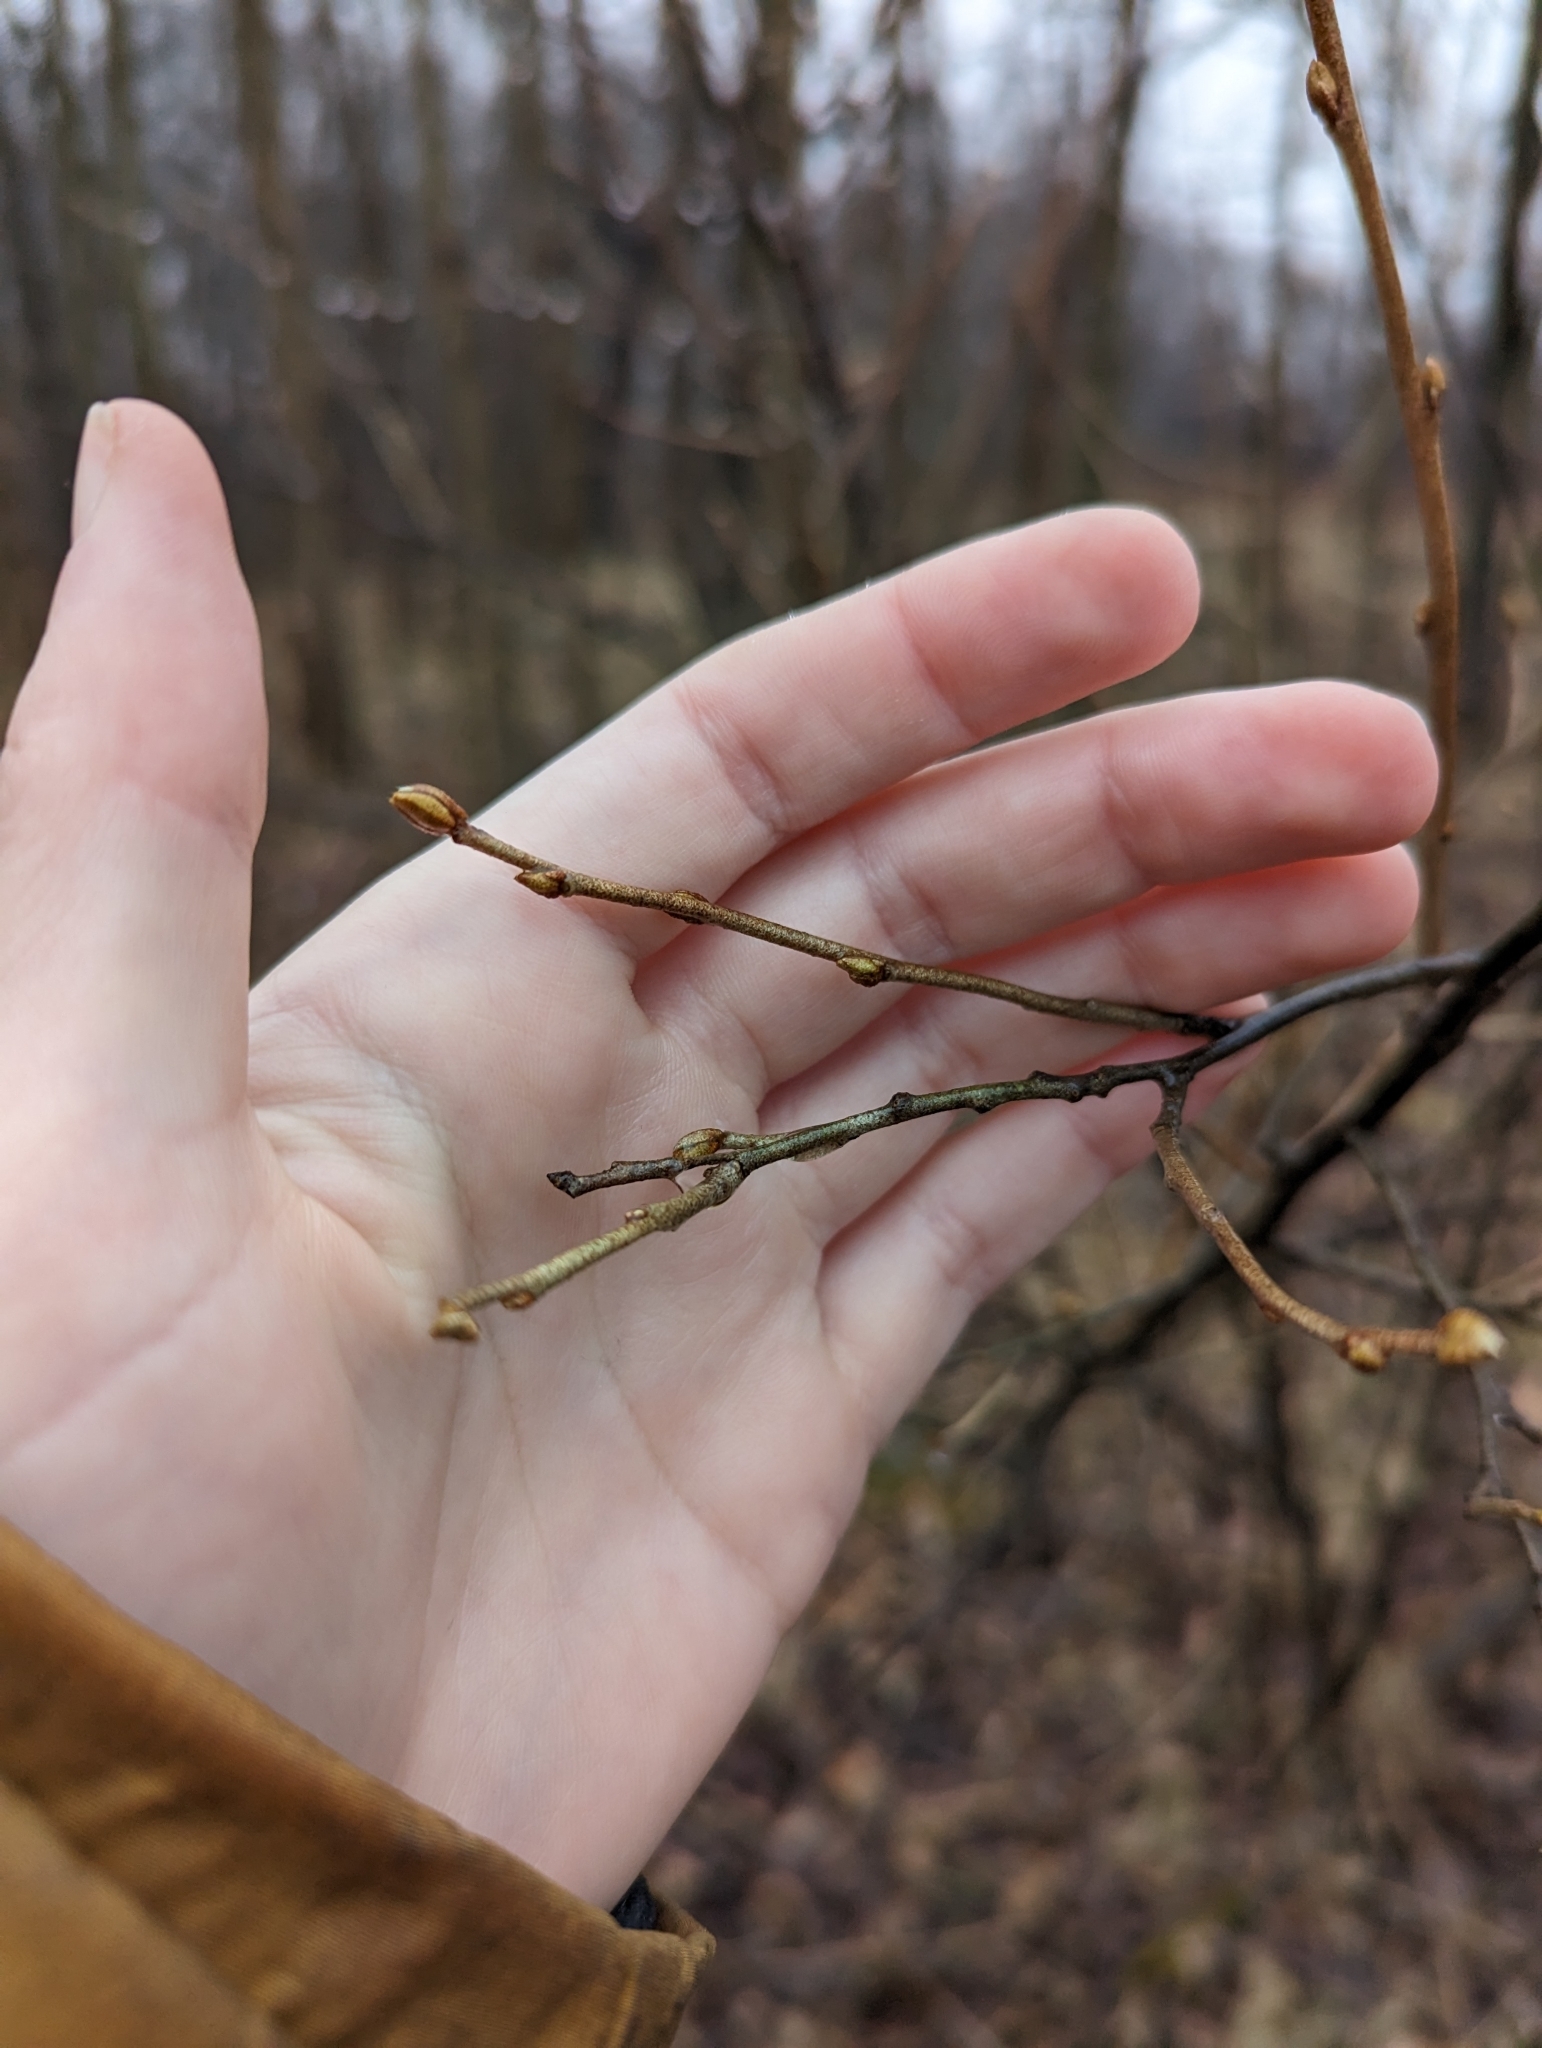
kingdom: Plantae
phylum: Tracheophyta
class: Magnoliopsida
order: Rosales
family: Elaeagnaceae
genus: Elaeagnus
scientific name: Elaeagnus umbellata
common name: Autumn olive
